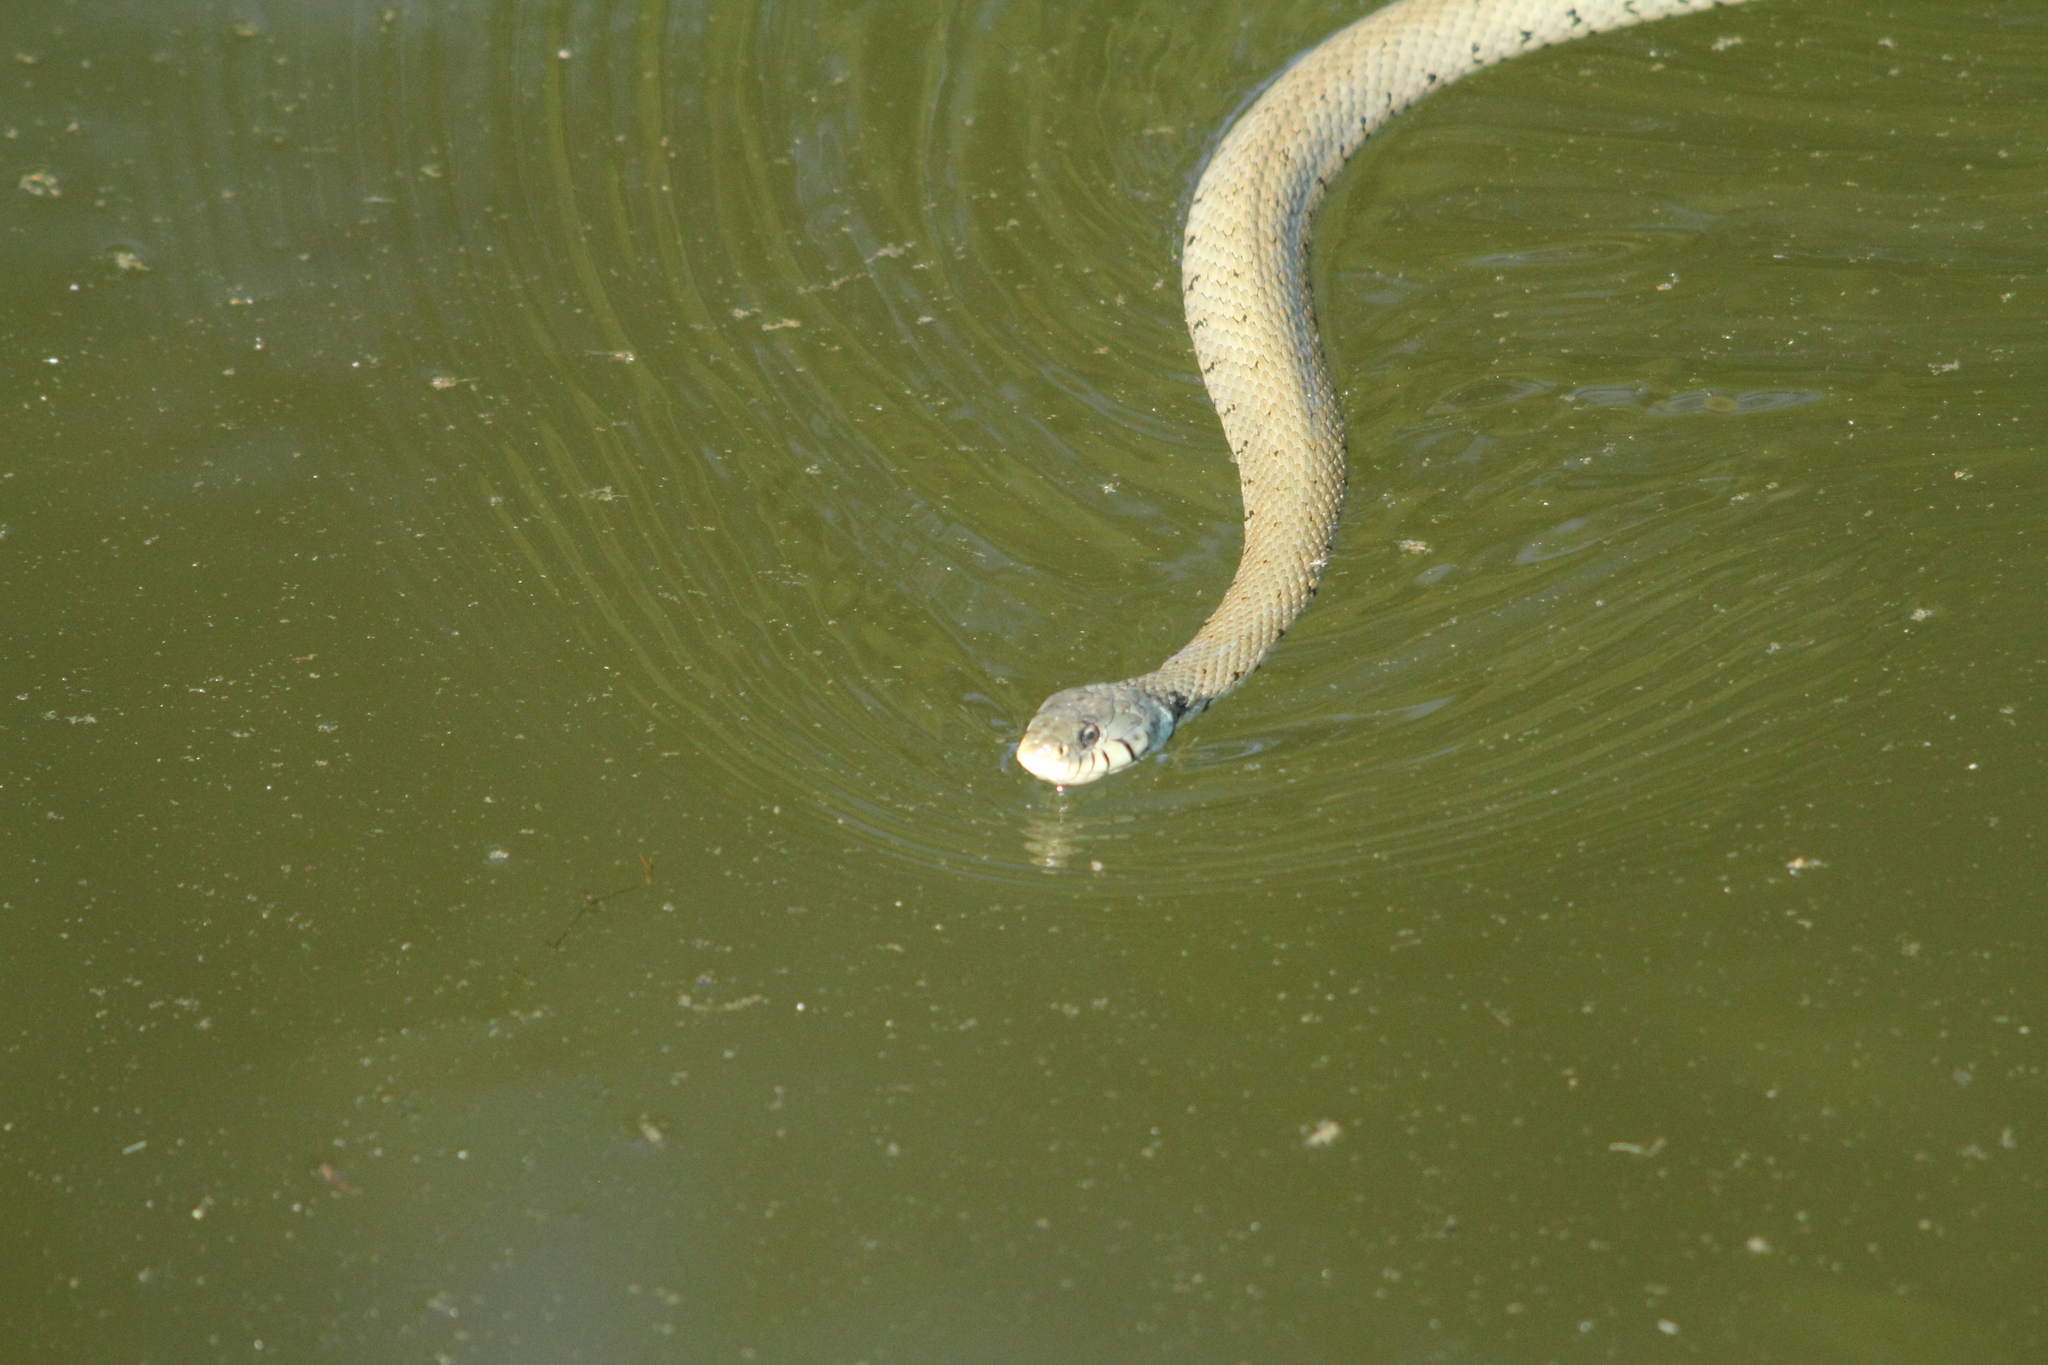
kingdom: Animalia
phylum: Chordata
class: Squamata
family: Colubridae
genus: Natrix
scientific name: Natrix helvetica
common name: Banded grass snake
